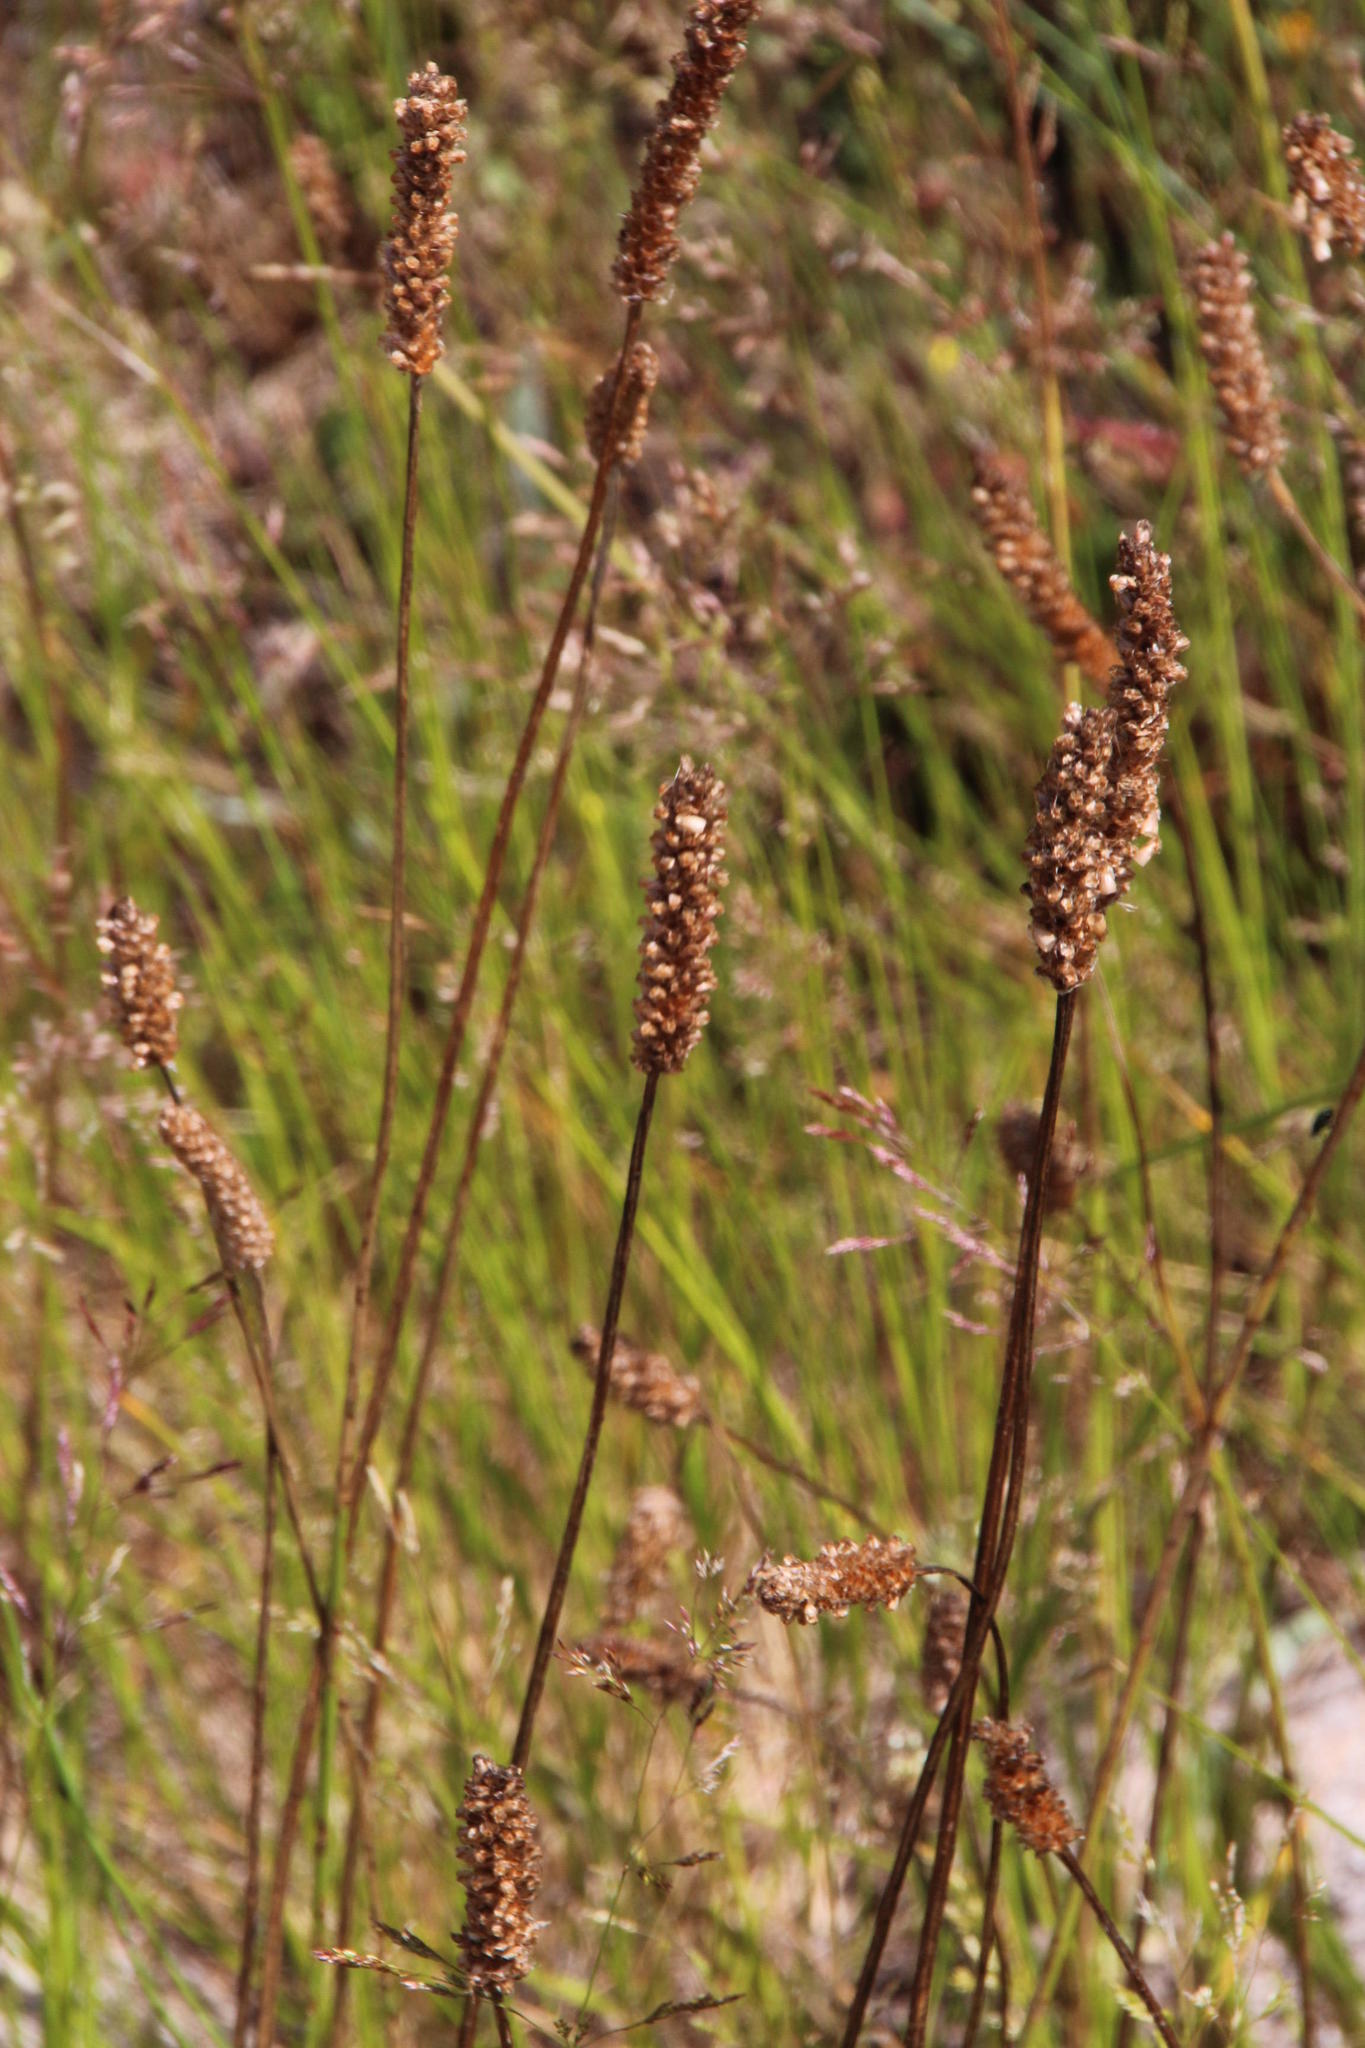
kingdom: Plantae
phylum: Tracheophyta
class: Magnoliopsida
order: Lamiales
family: Plantaginaceae
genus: Plantago
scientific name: Plantago lanceolata
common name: Ribwort plantain
